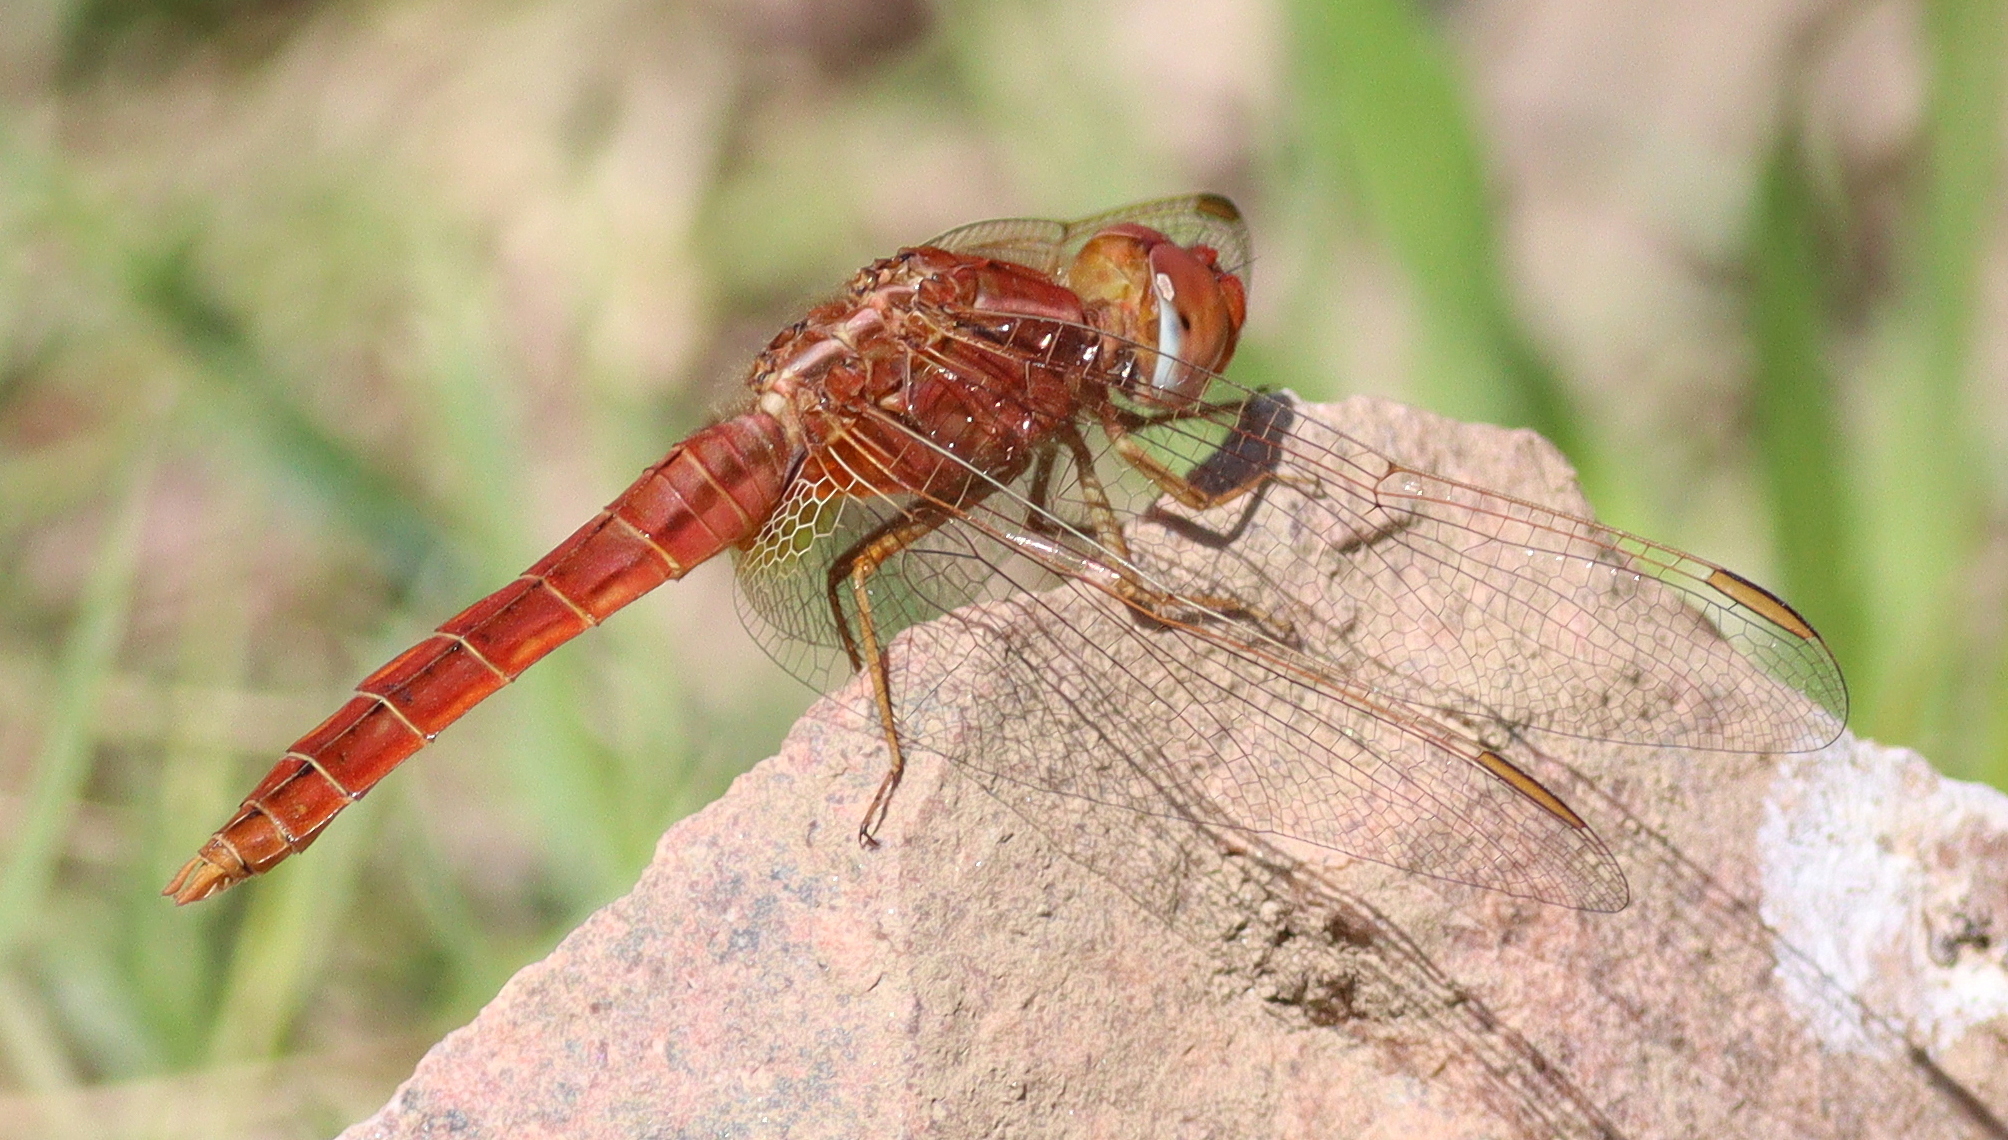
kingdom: Animalia
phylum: Arthropoda
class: Insecta
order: Odonata
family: Libellulidae
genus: Crocothemis
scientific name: Crocothemis erythraea
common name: Scarlet dragonfly
